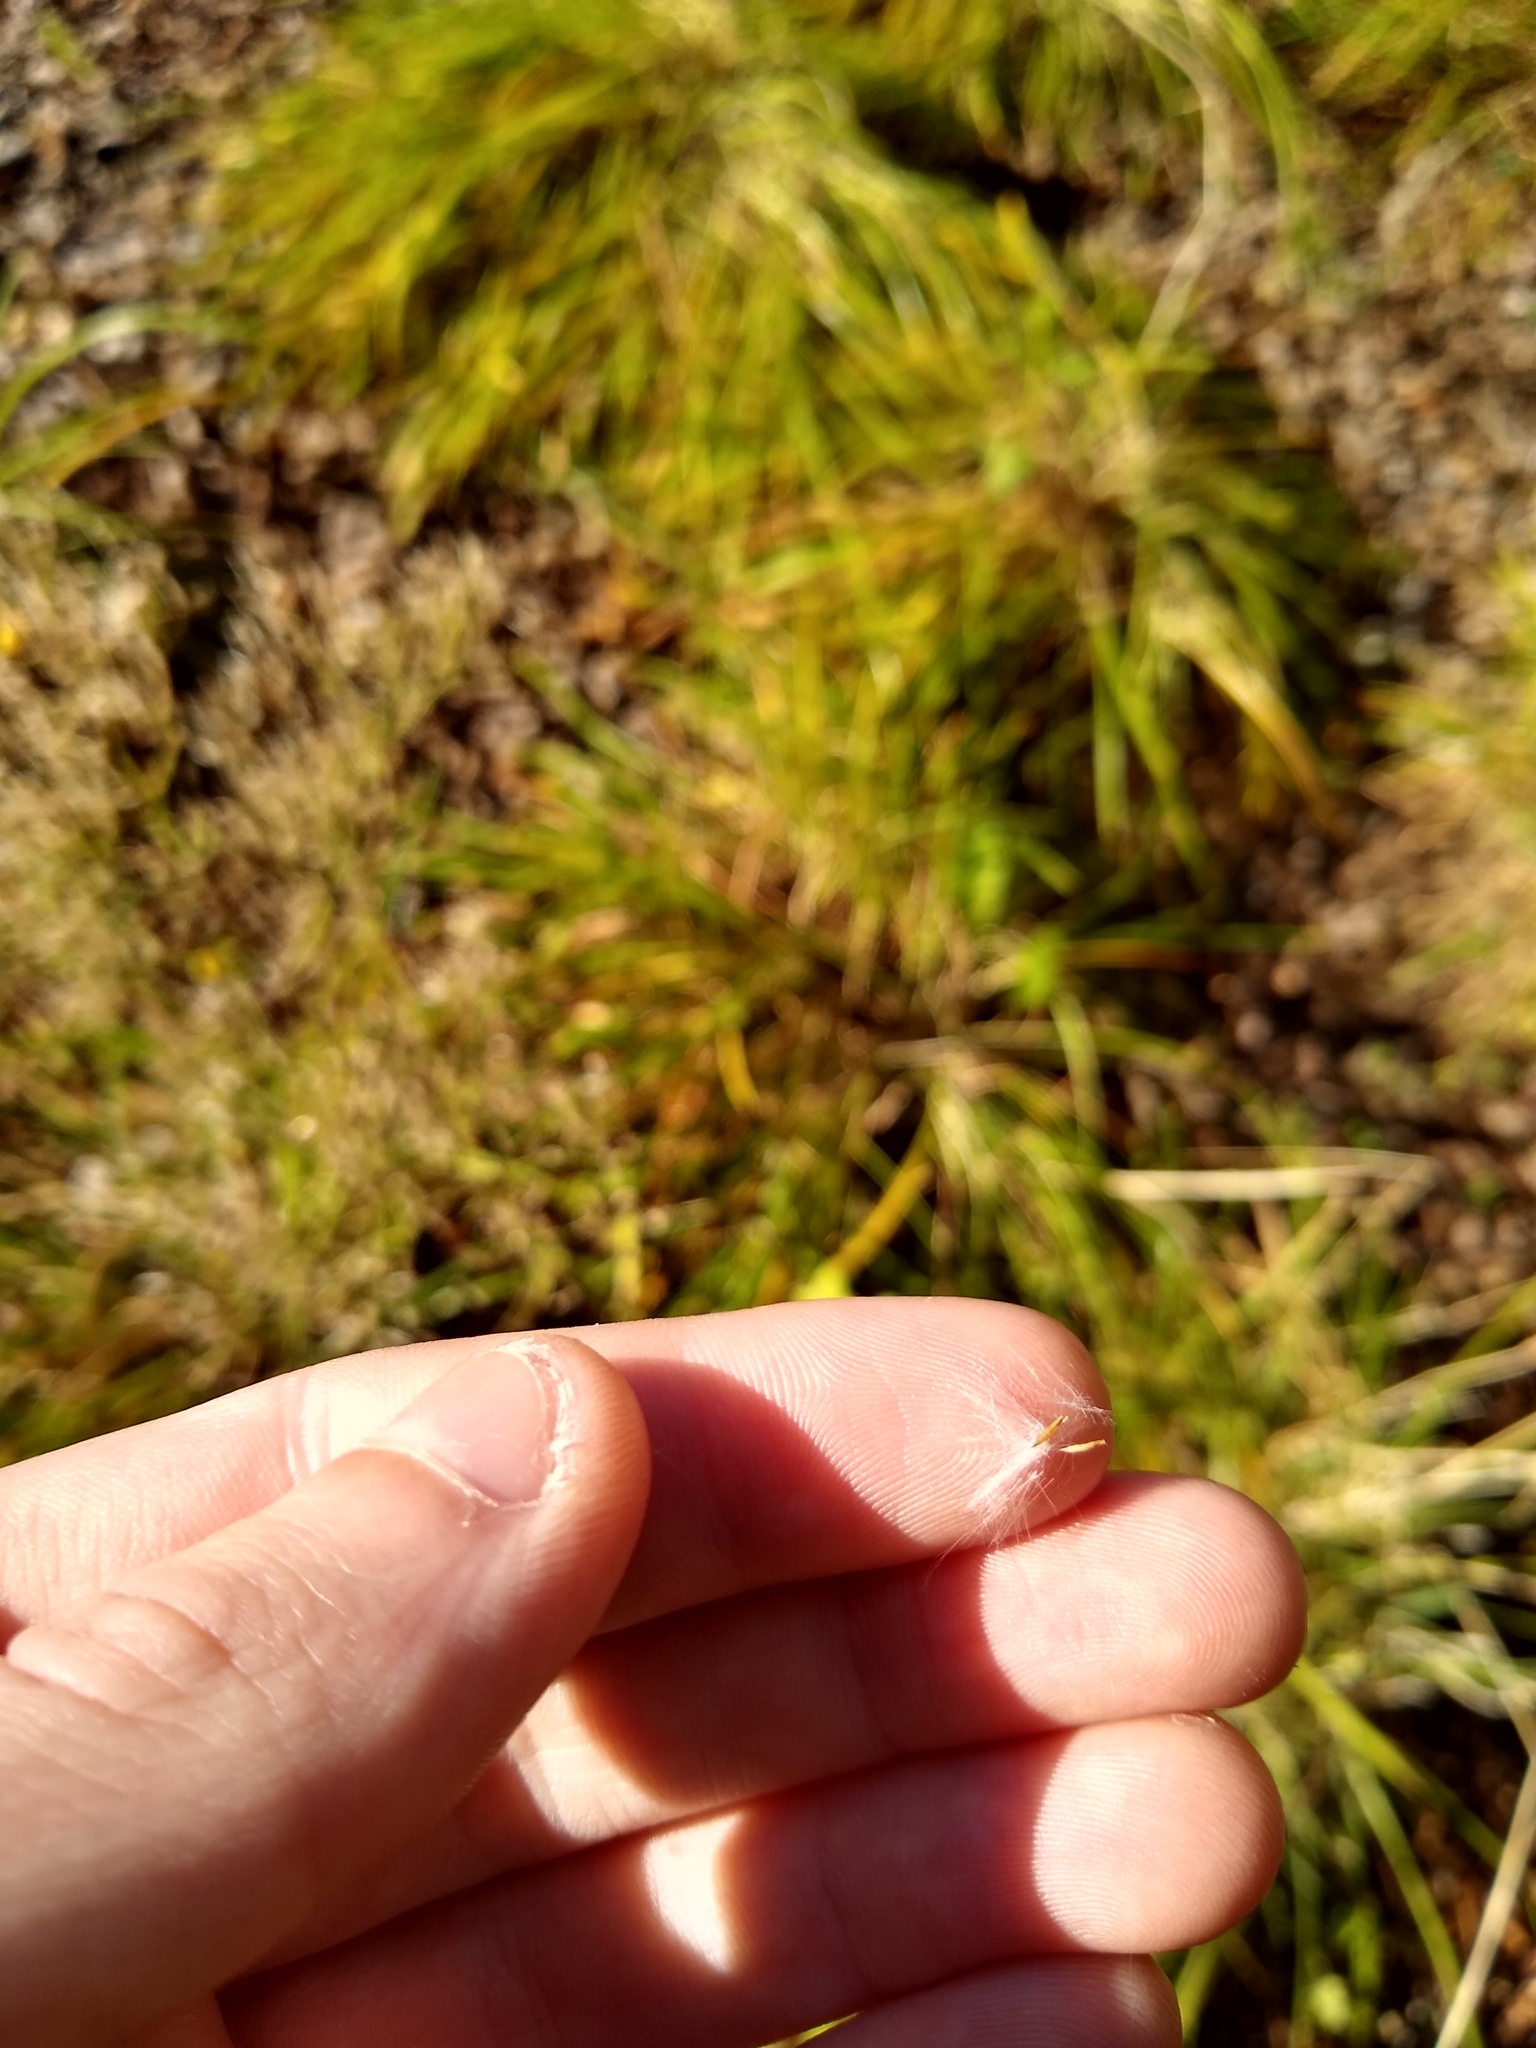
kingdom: Plantae
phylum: Tracheophyta
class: Magnoliopsida
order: Asterales
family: Asteraceae
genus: Mycelis
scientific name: Mycelis muralis
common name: Wall lettuce
